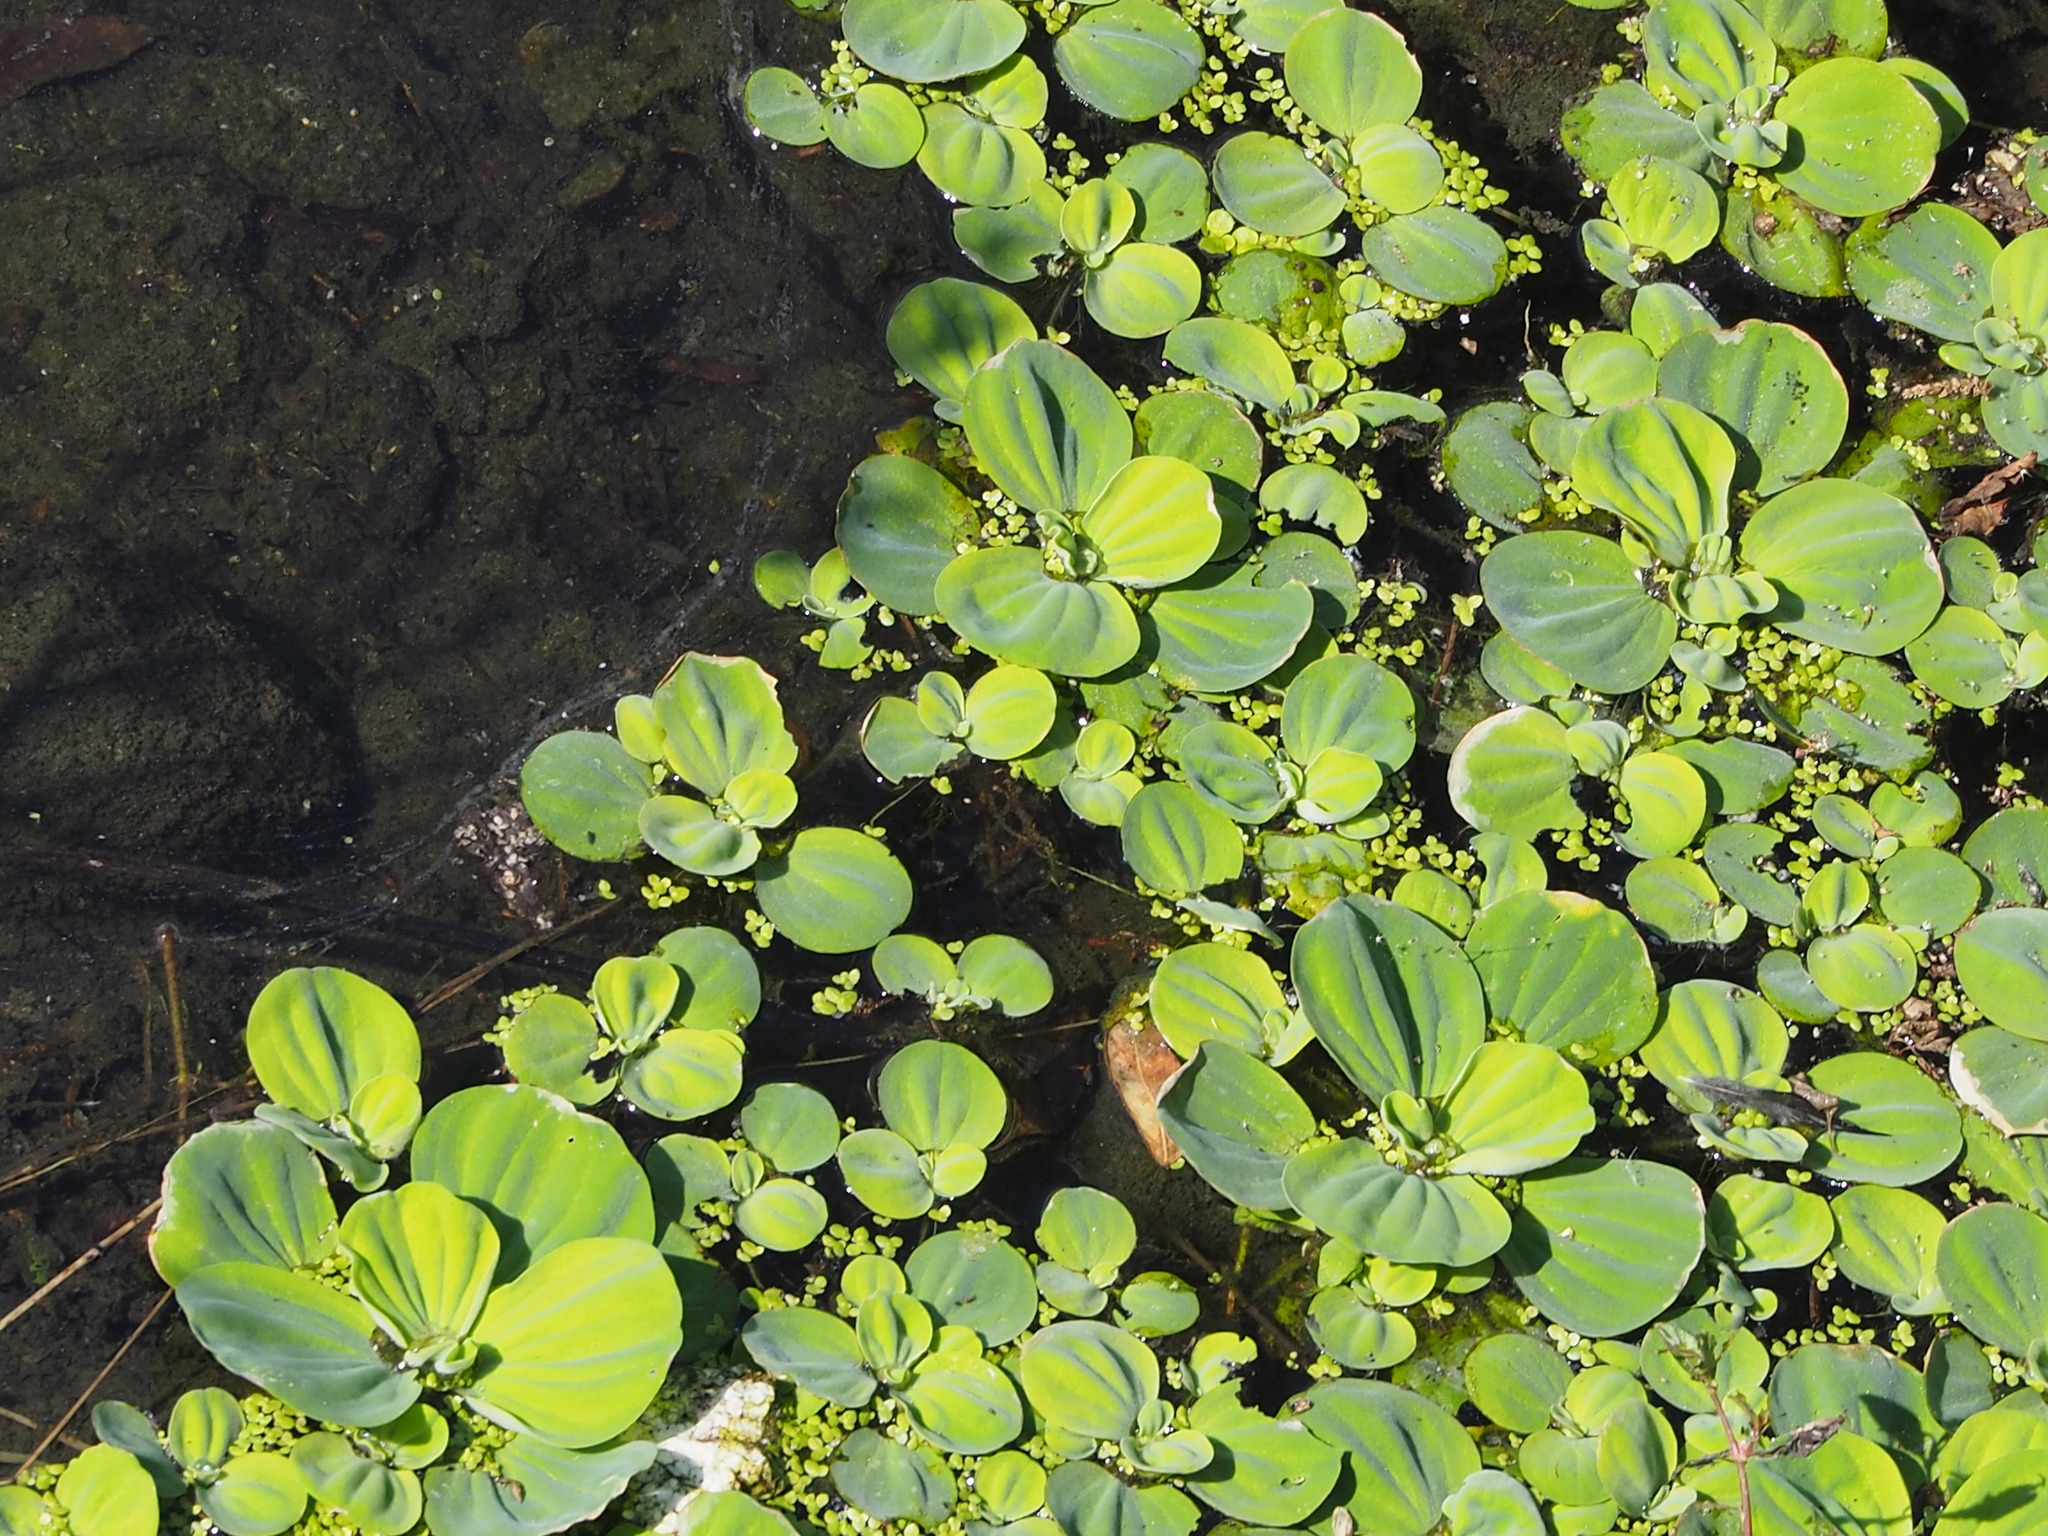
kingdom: Plantae
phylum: Tracheophyta
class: Liliopsida
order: Alismatales
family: Araceae
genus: Pistia
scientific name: Pistia stratiotes
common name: Water lettuce
